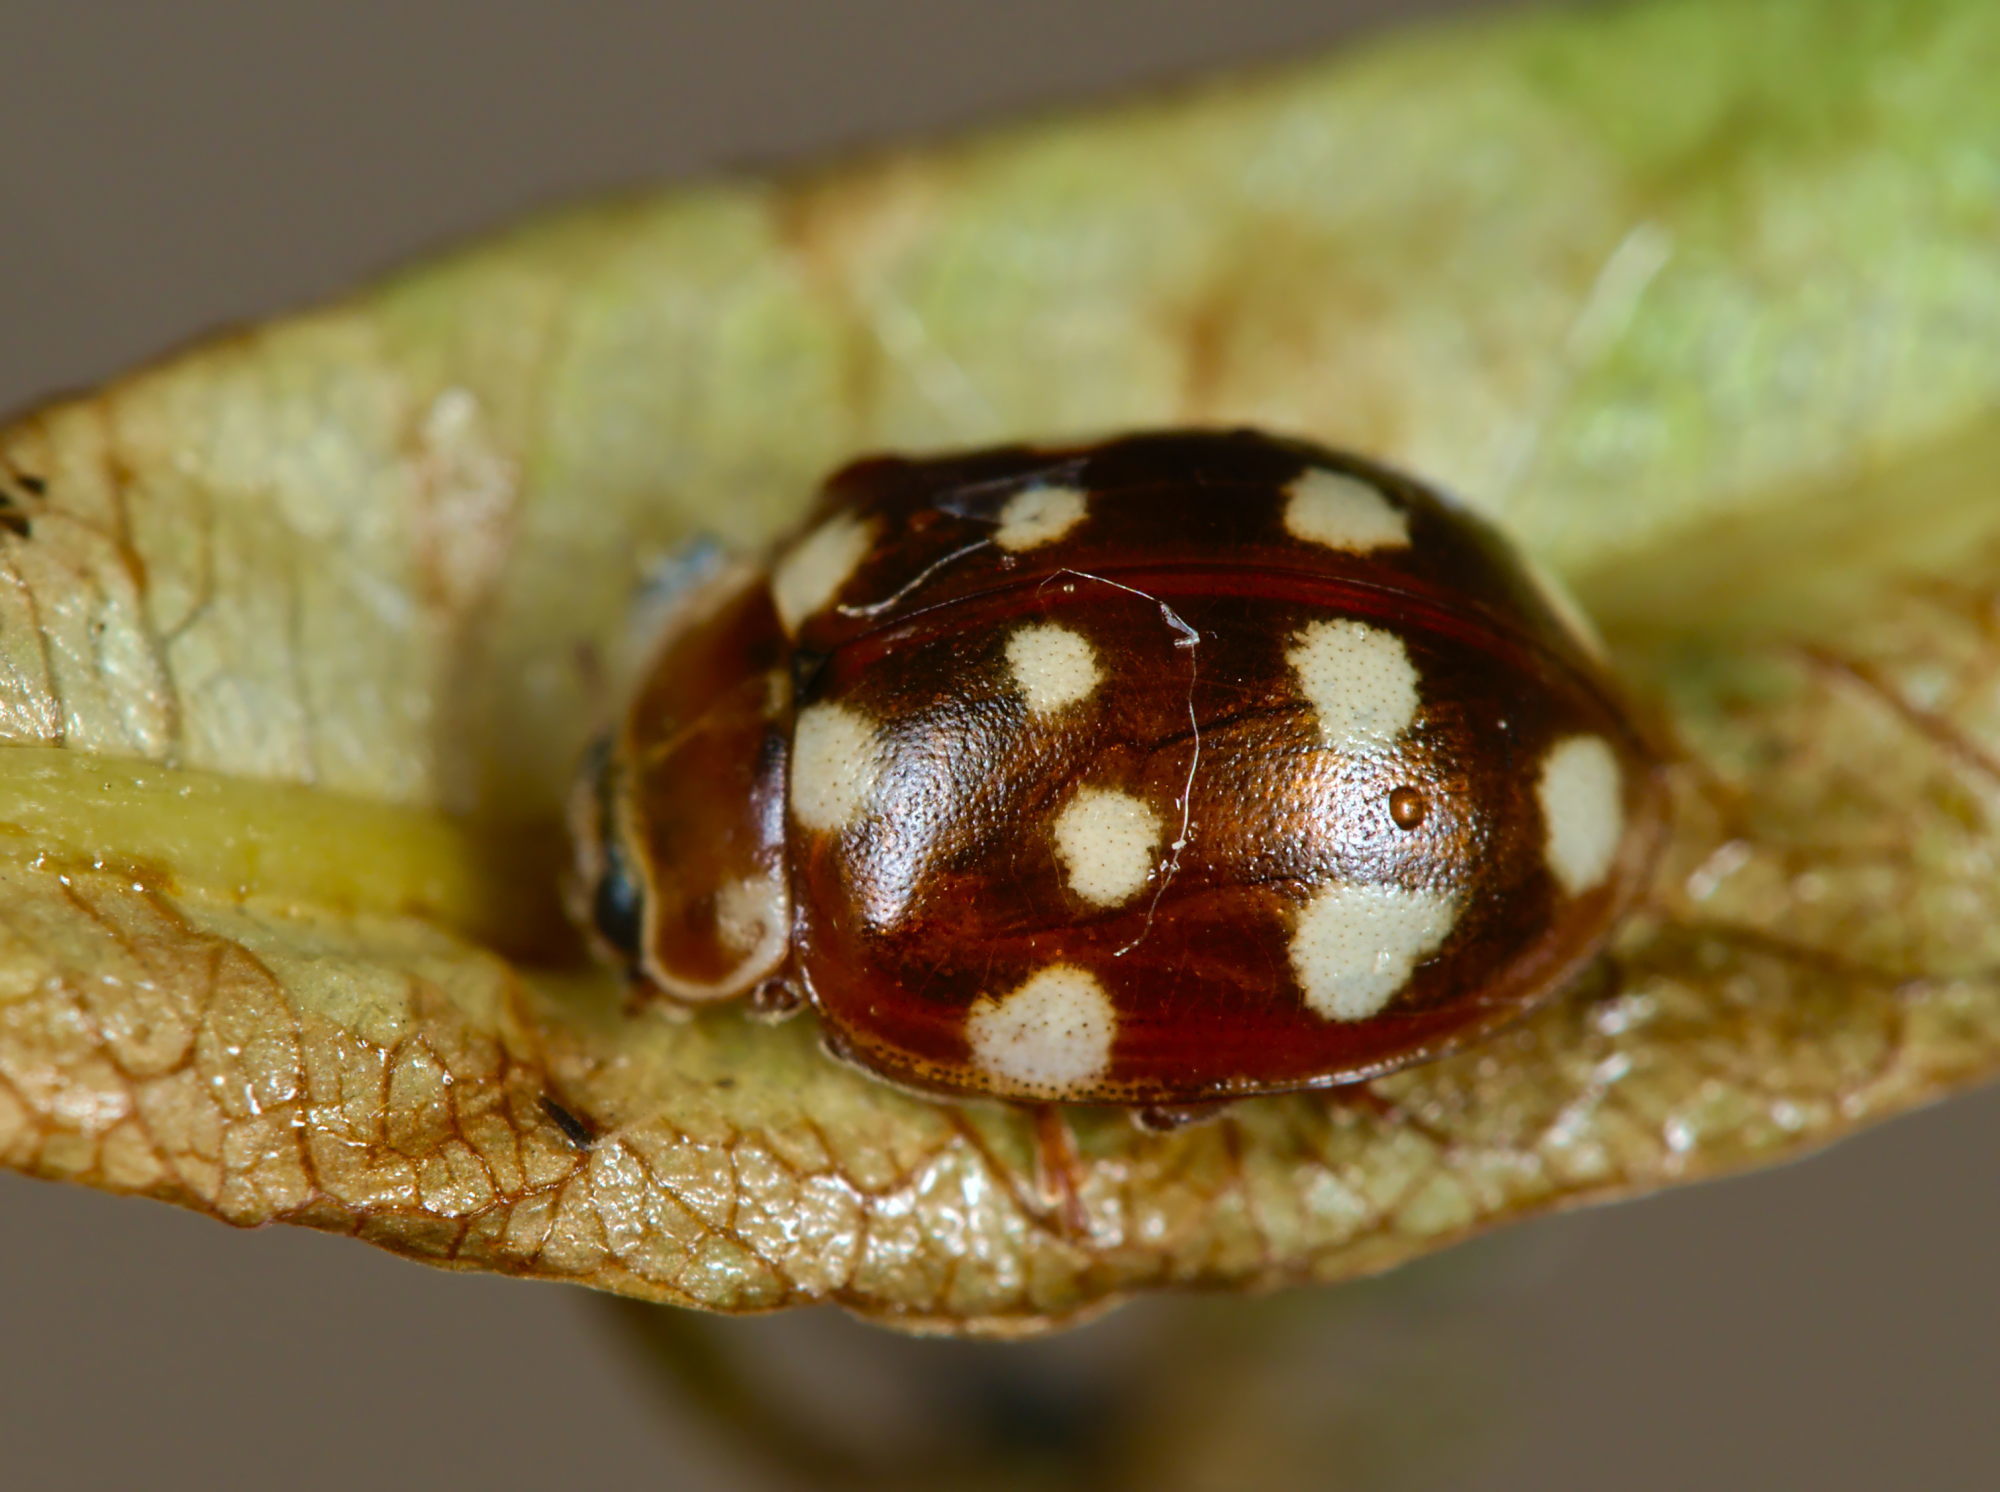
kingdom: Animalia
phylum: Arthropoda
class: Insecta
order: Coleoptera
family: Coccinellidae
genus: Calvia
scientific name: Calvia quatuordecimguttata
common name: Cream-spot ladybird
